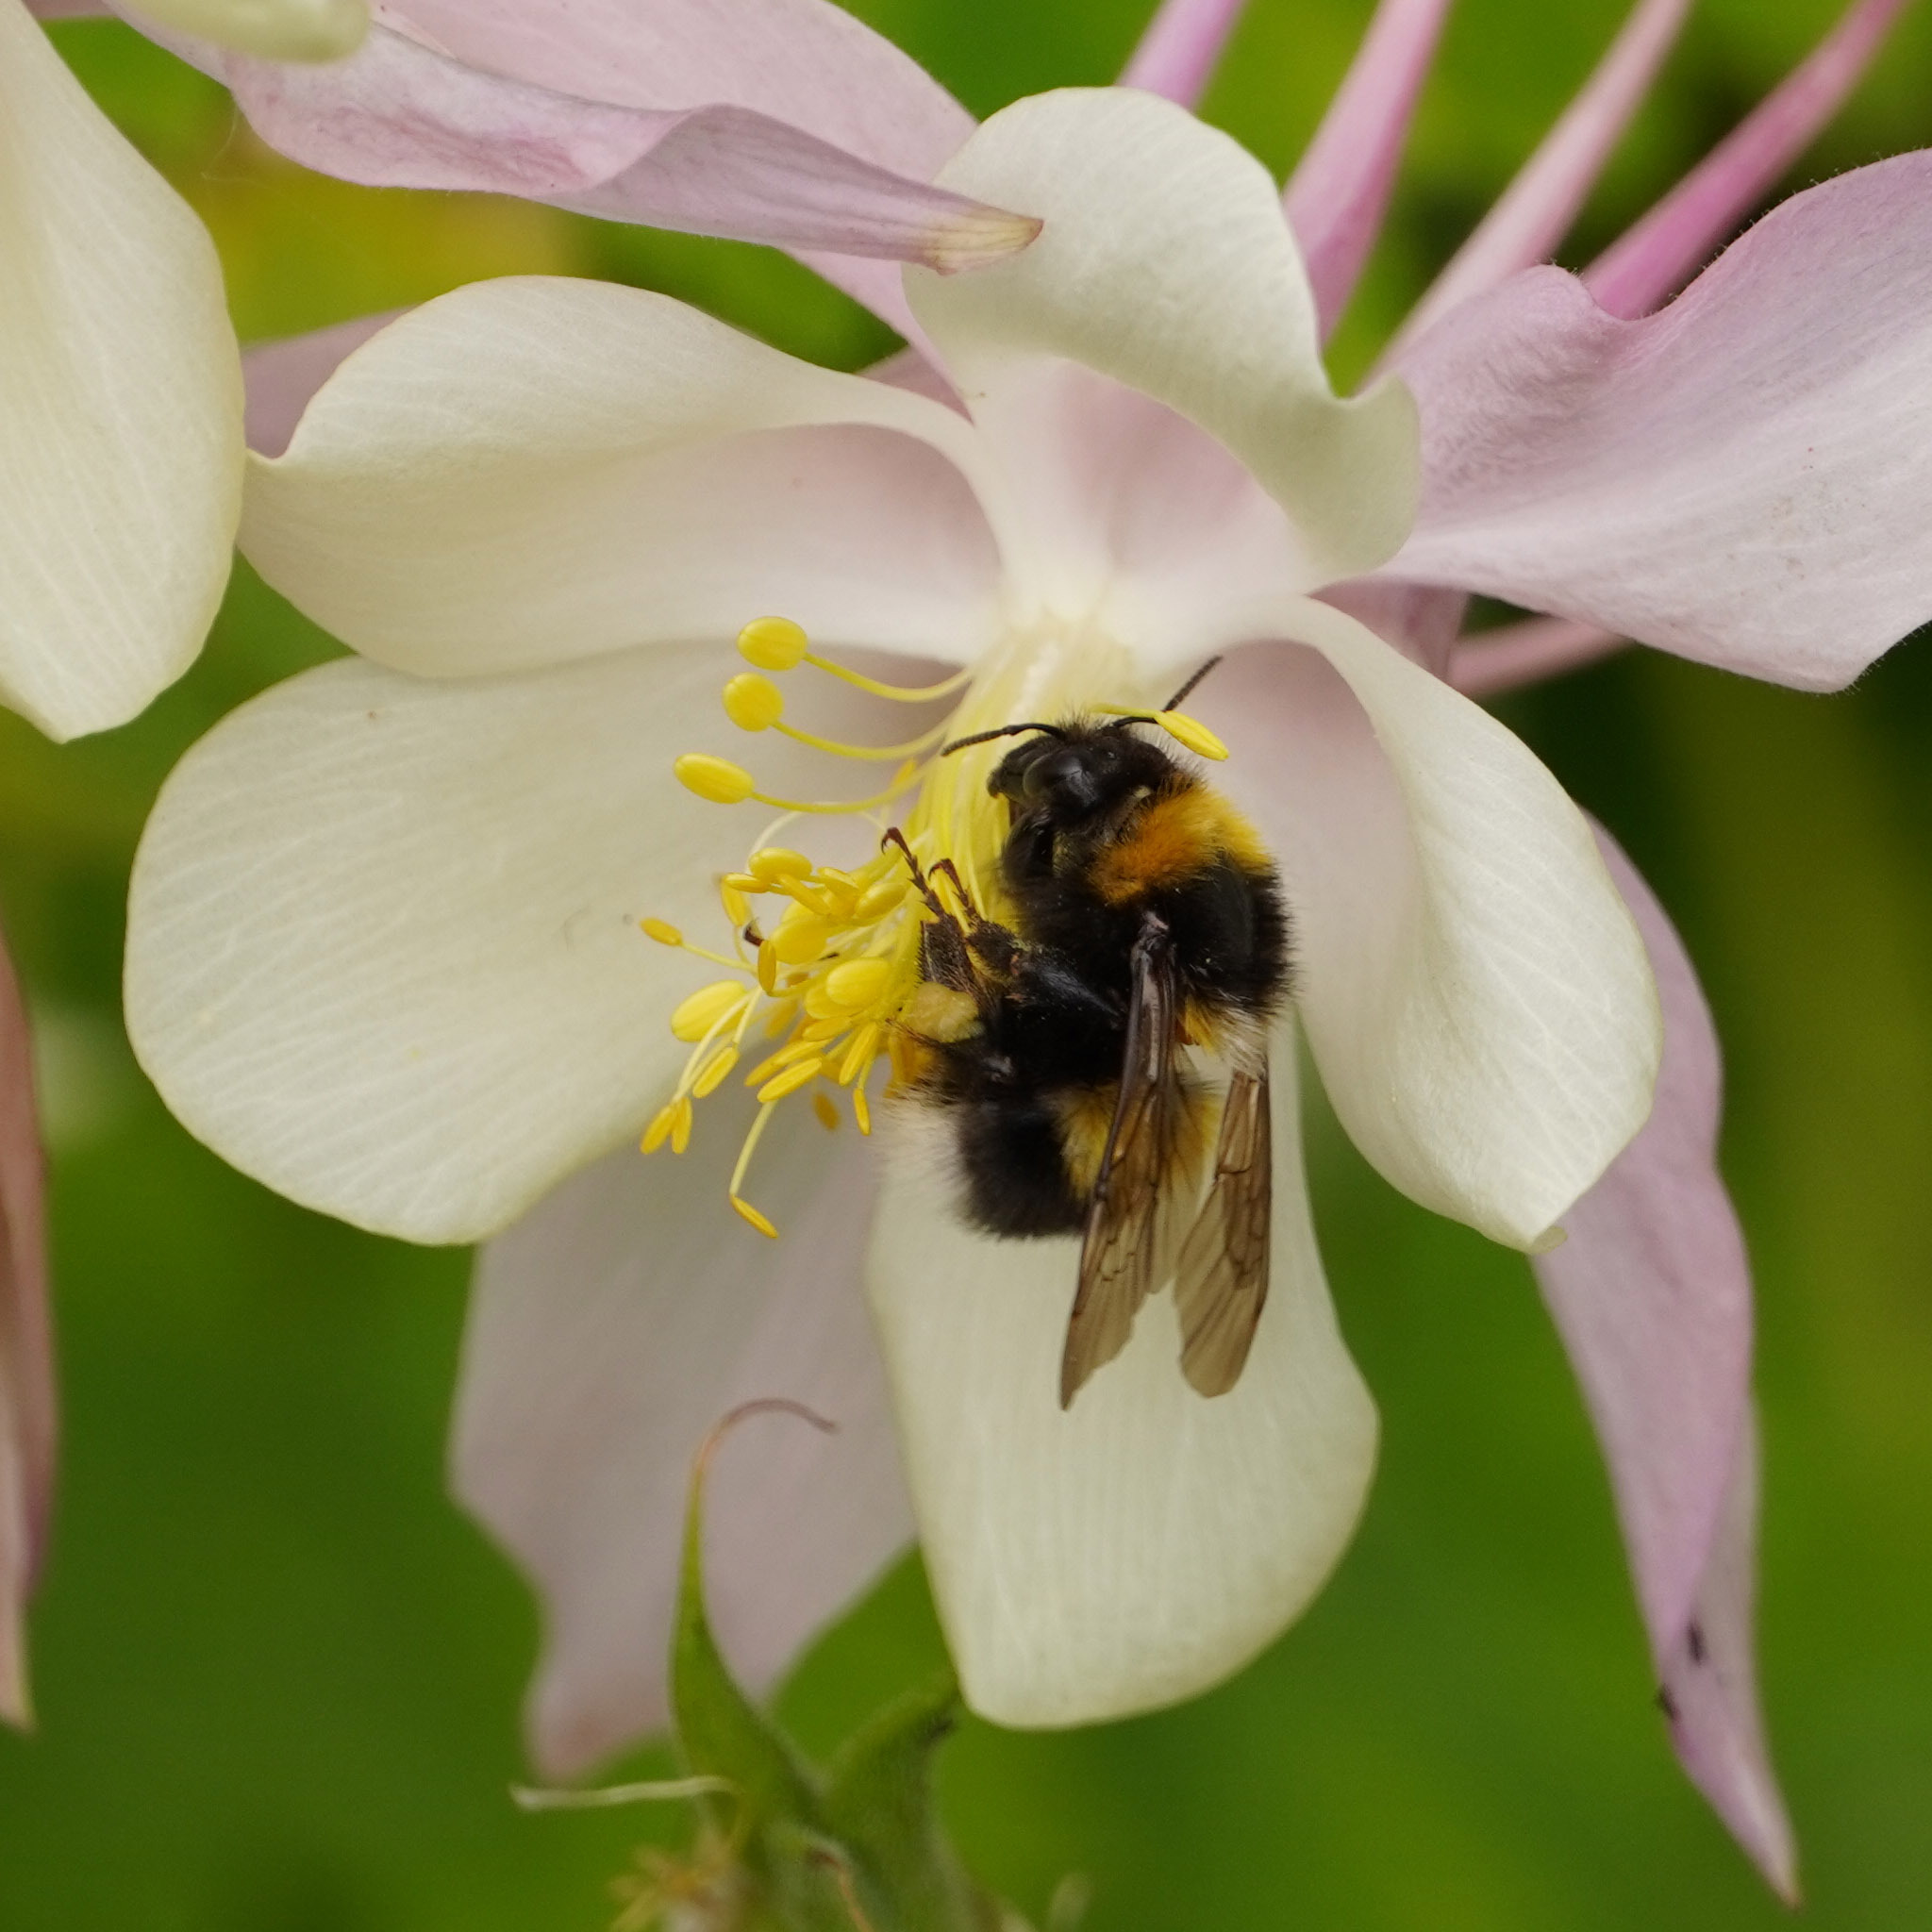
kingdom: Animalia
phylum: Arthropoda
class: Insecta
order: Hymenoptera
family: Apidae
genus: Bombus
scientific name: Bombus hortorum
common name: Garden bumblebee
